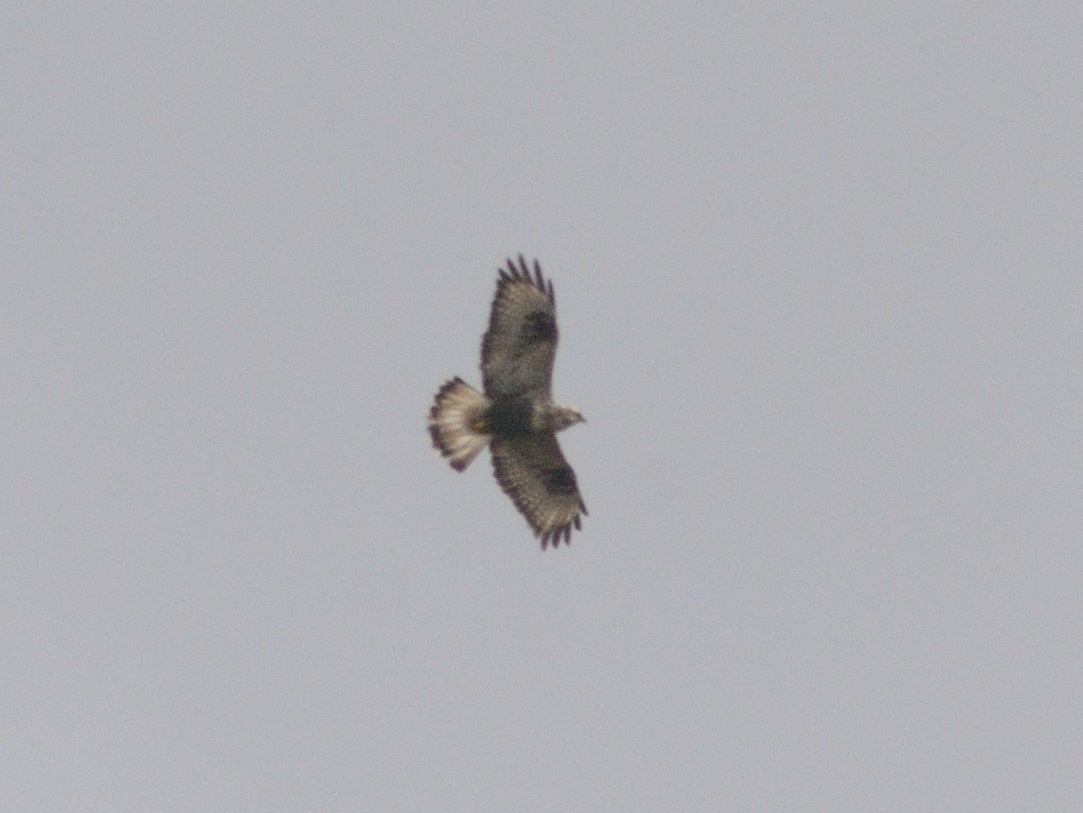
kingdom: Animalia
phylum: Chordata
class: Aves
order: Accipitriformes
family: Accipitridae
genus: Buteo
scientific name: Buteo lagopus
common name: Rough-legged buzzard
